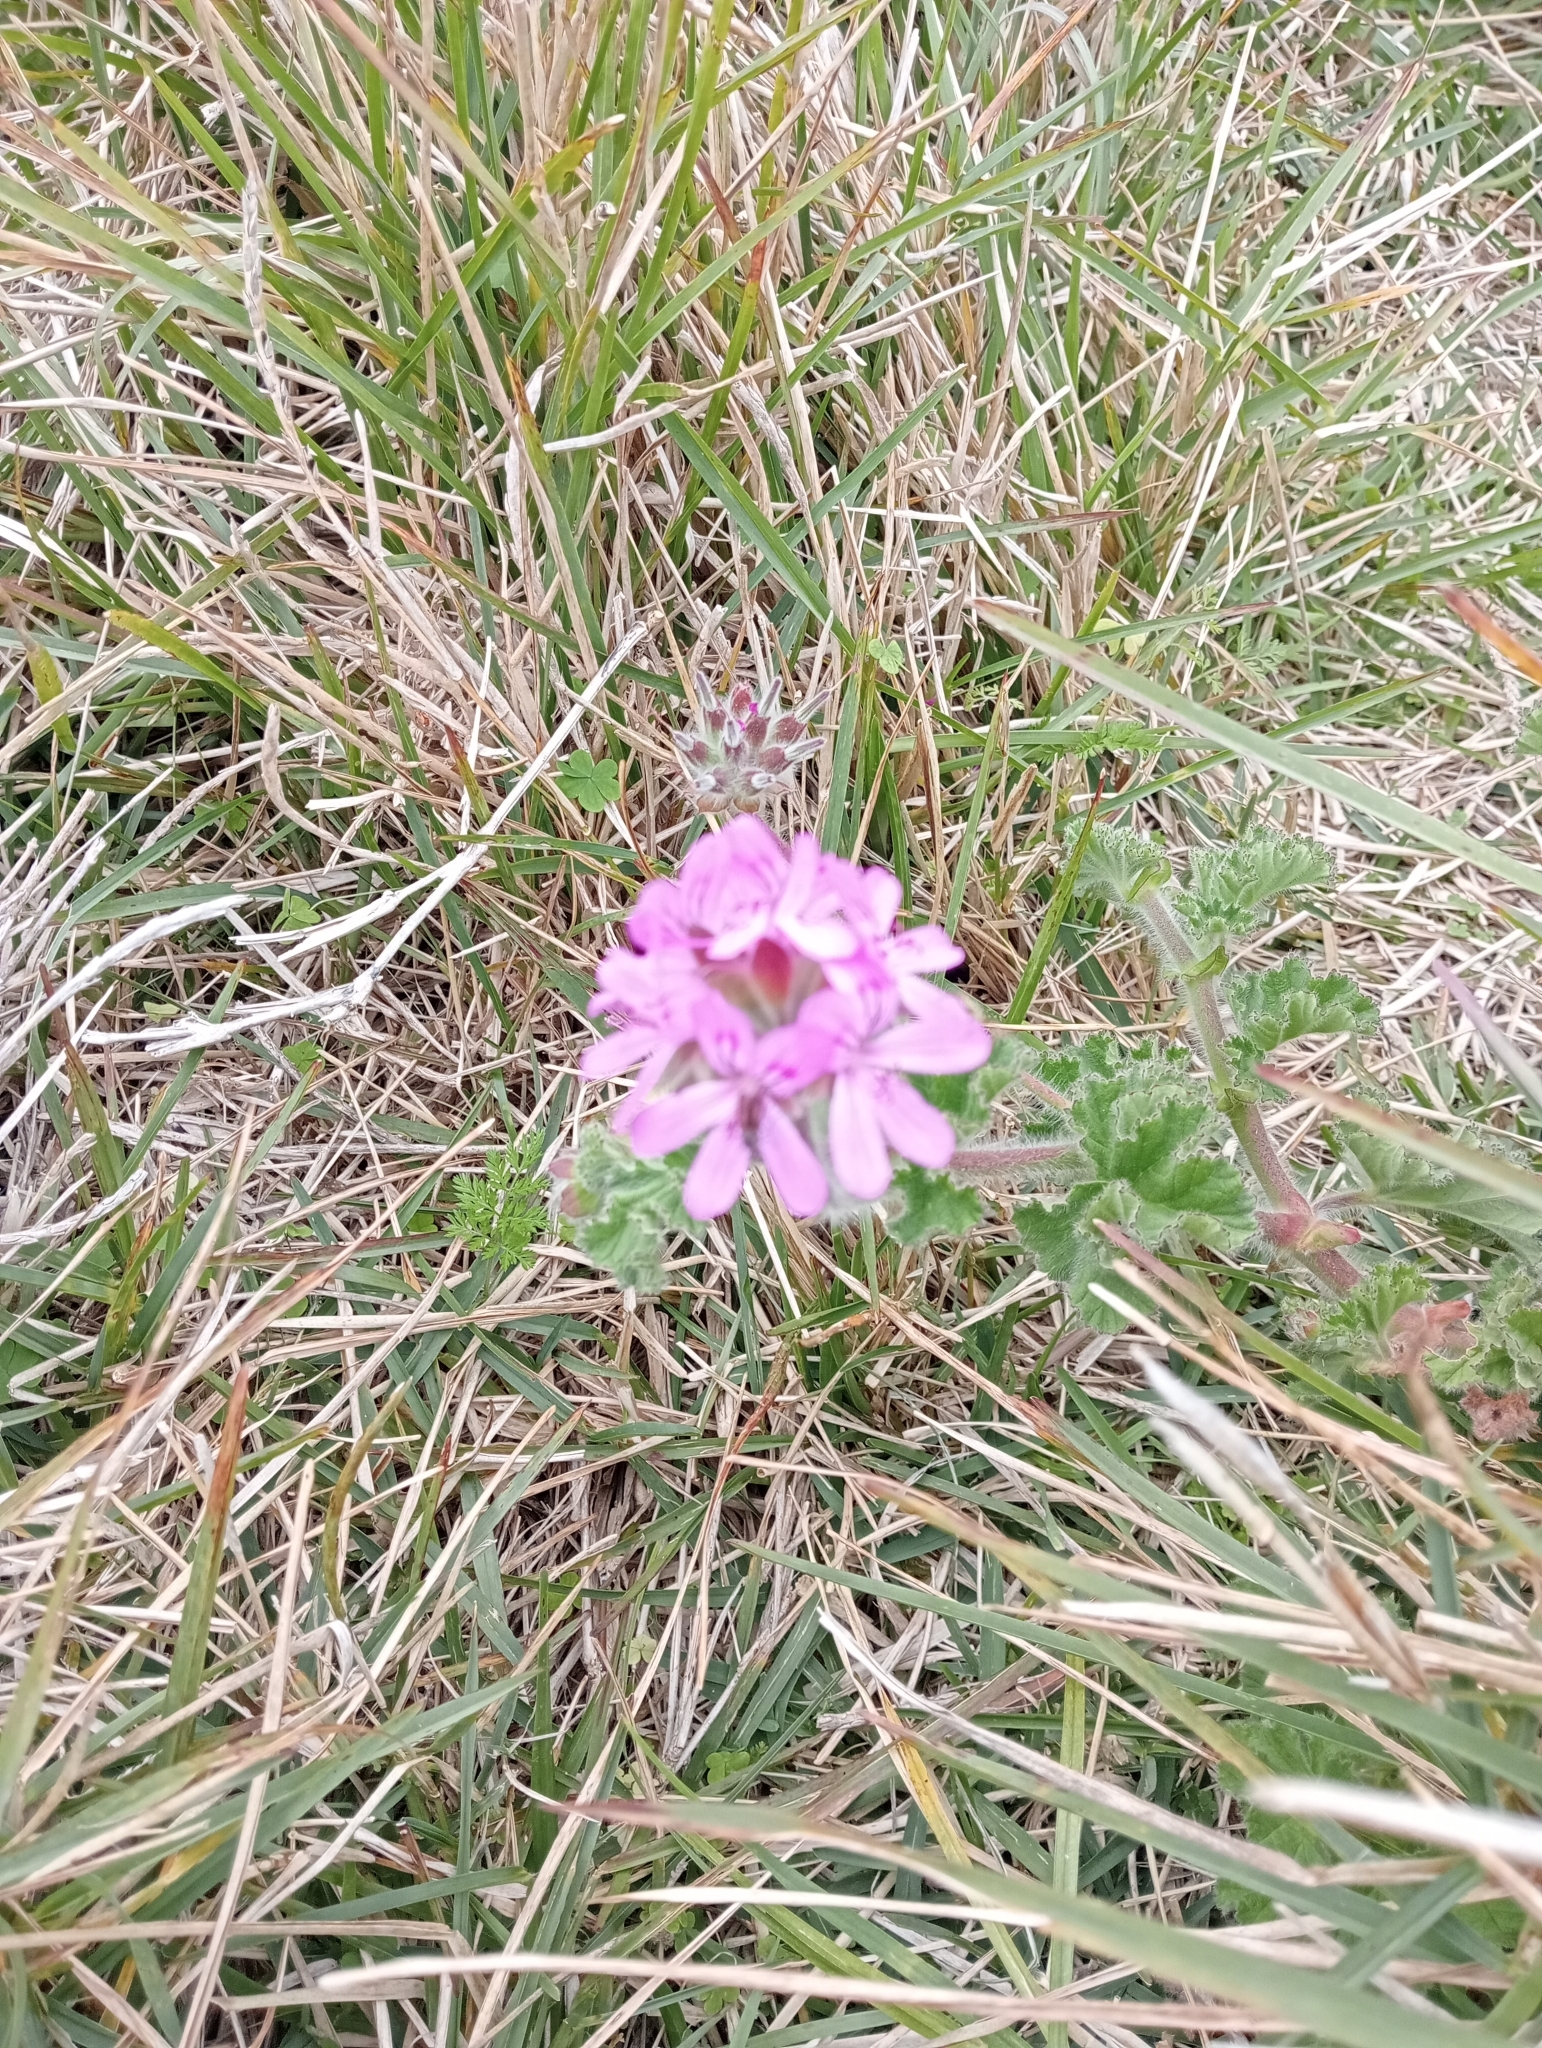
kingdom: Plantae
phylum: Tracheophyta
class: Magnoliopsida
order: Geraniales
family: Geraniaceae
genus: Pelargonium
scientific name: Pelargonium capitatum
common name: Rose scented geranium
